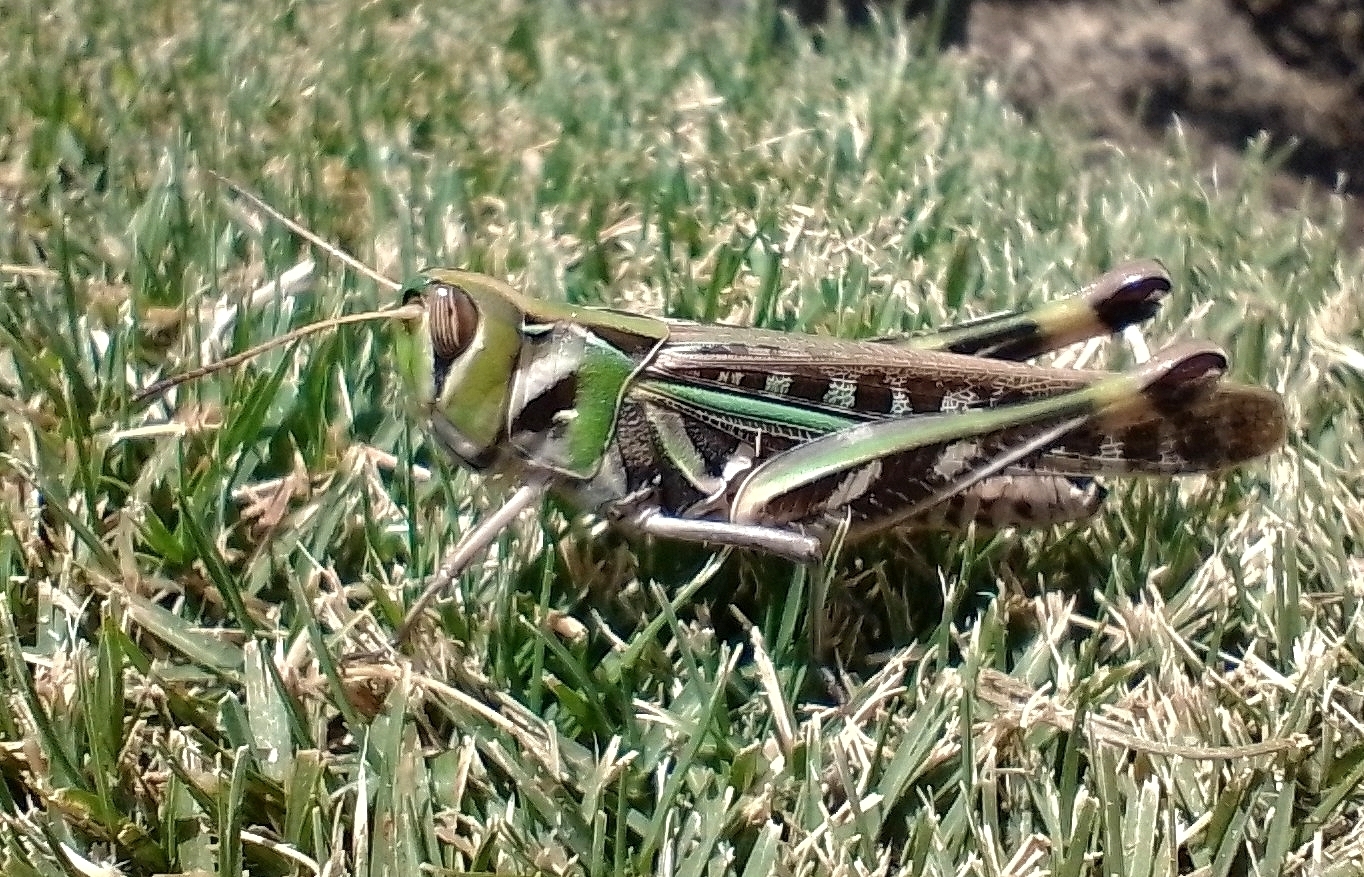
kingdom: Animalia
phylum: Arthropoda
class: Insecta
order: Orthoptera
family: Acrididae
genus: Rhammatocerus
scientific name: Rhammatocerus pictus
